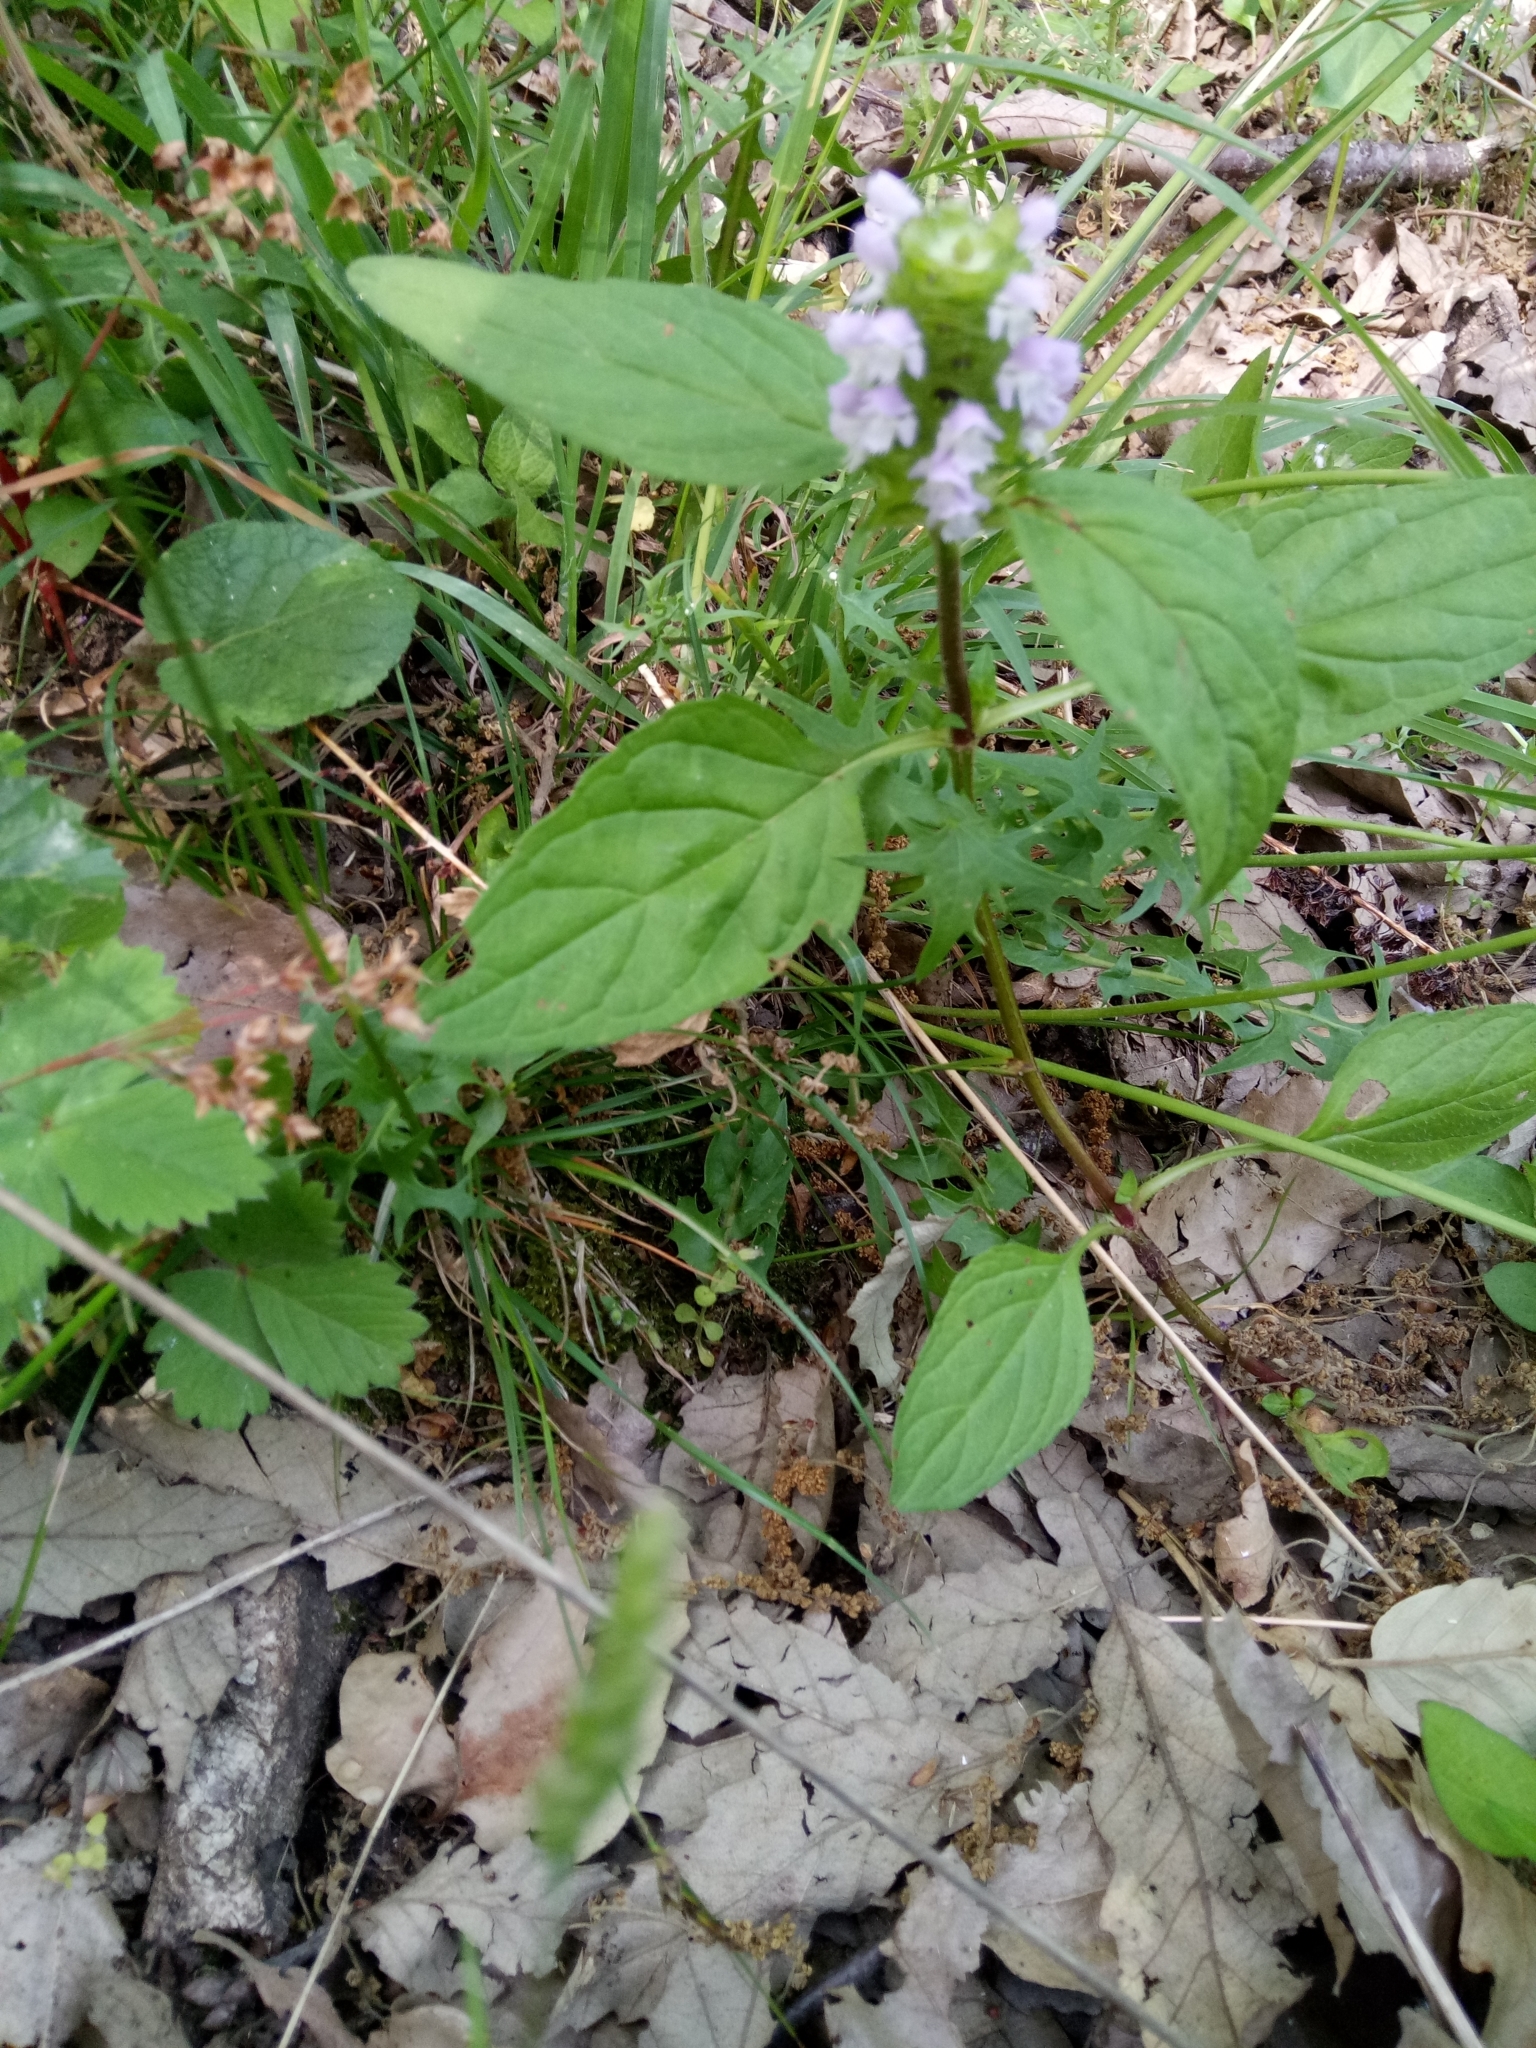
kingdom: Plantae
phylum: Tracheophyta
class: Magnoliopsida
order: Lamiales
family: Lamiaceae
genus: Prunella
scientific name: Prunella vulgaris
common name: Heal-all
